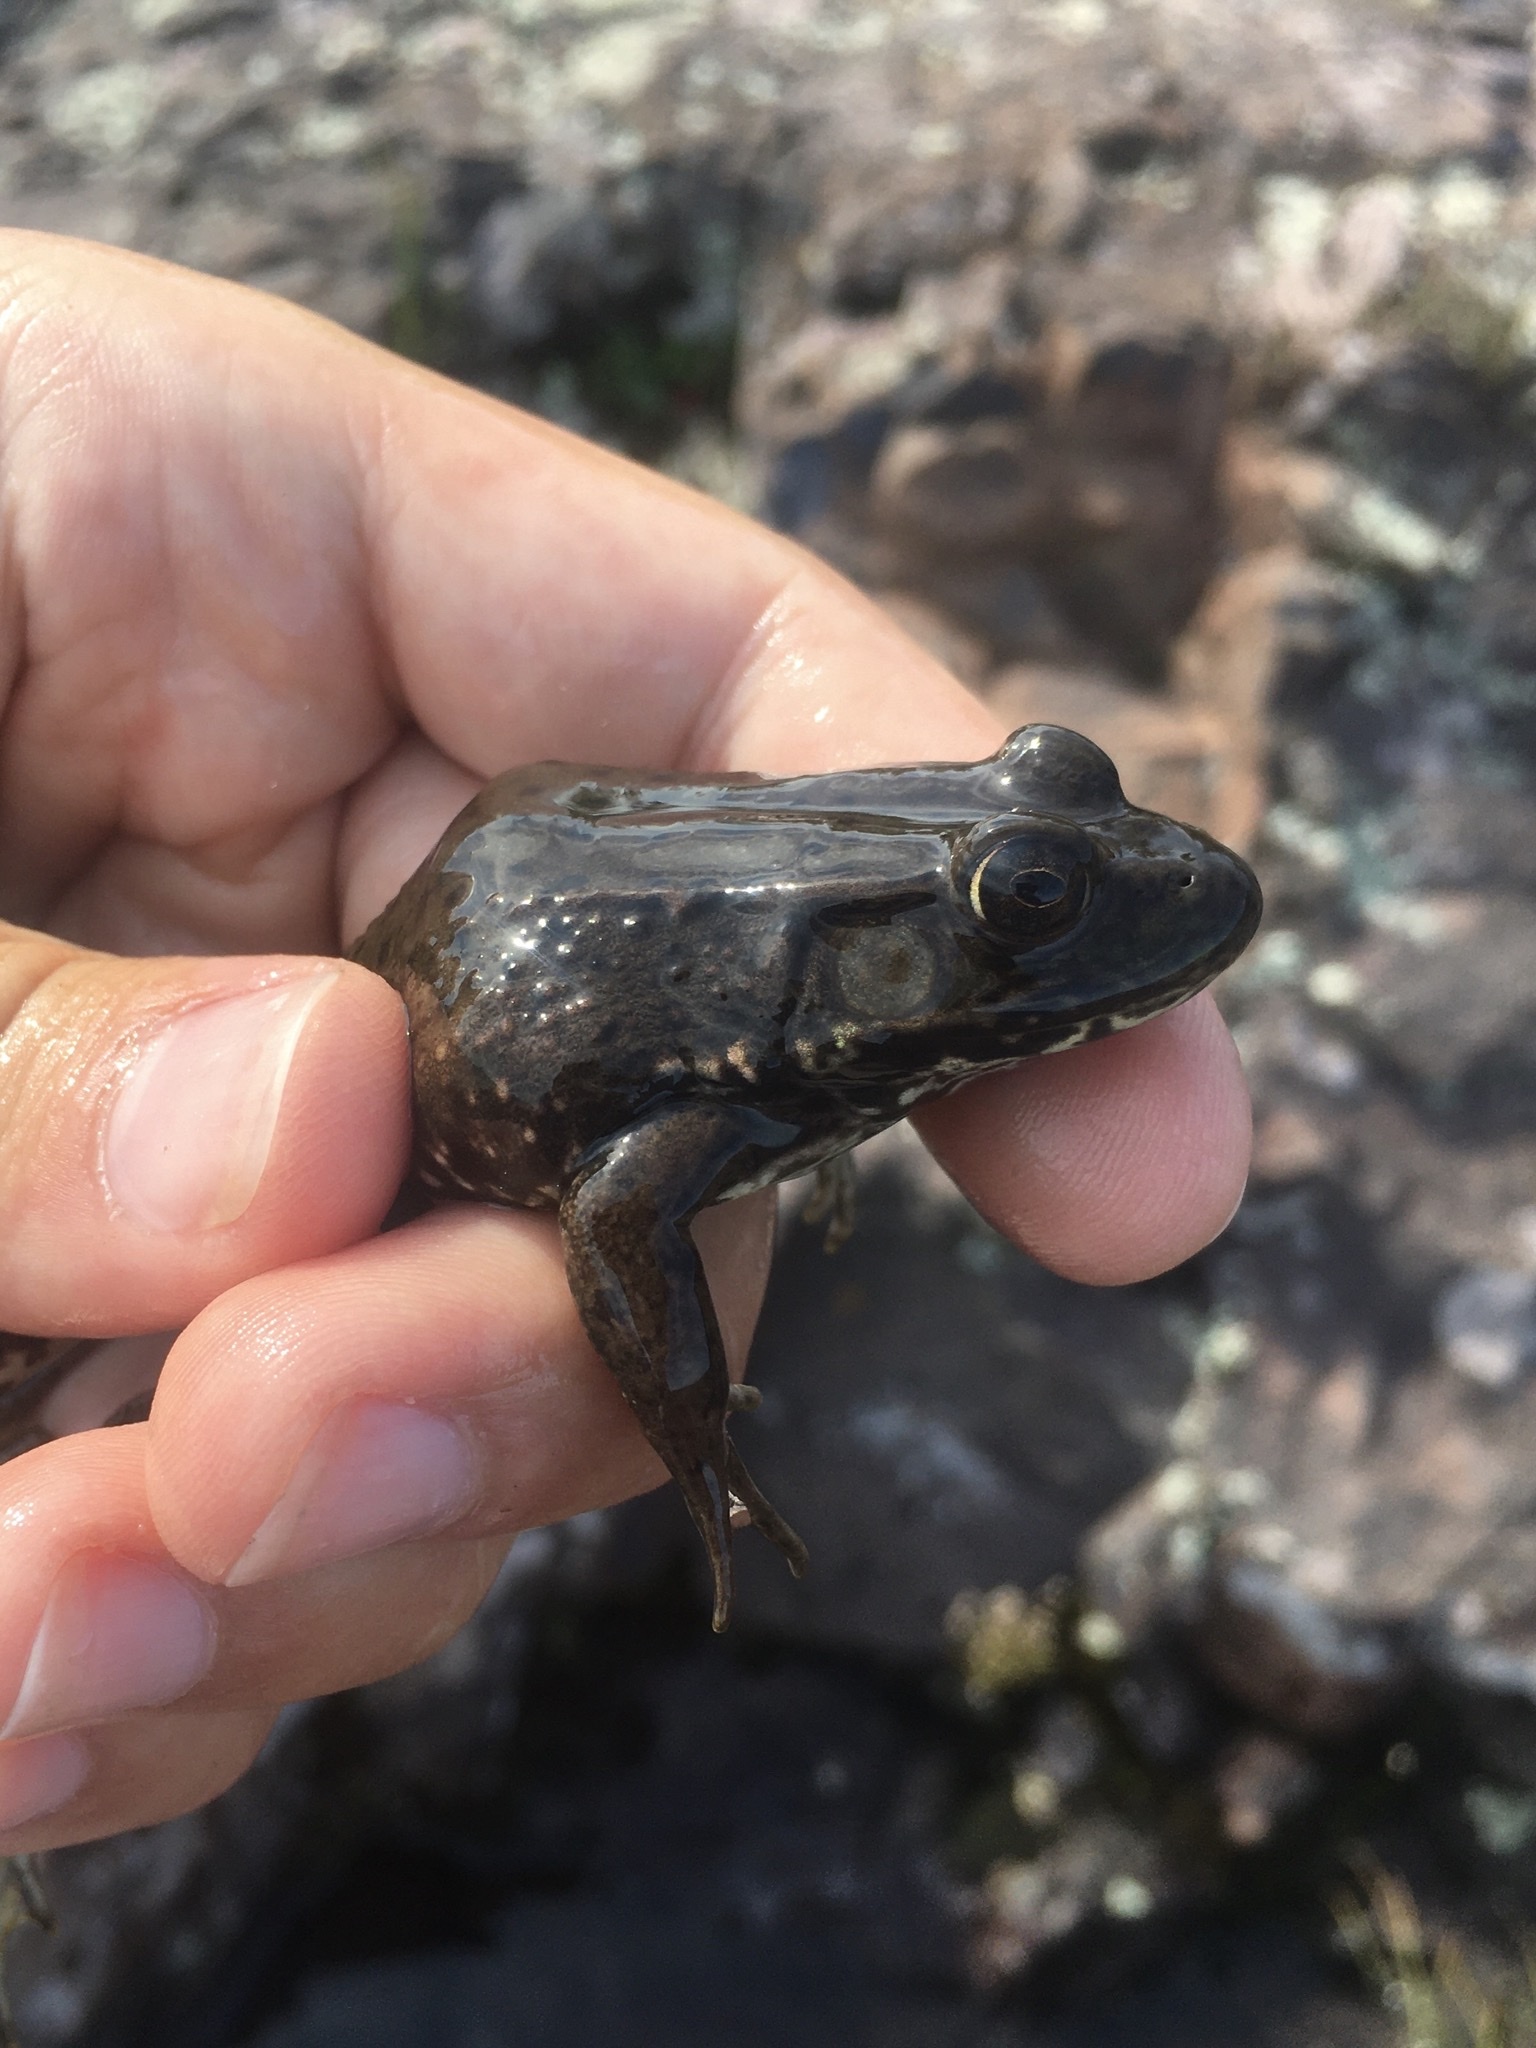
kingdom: Animalia
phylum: Chordata
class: Amphibia
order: Anura
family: Ranidae
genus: Lithobates
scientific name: Lithobates clamitans
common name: Green frog
